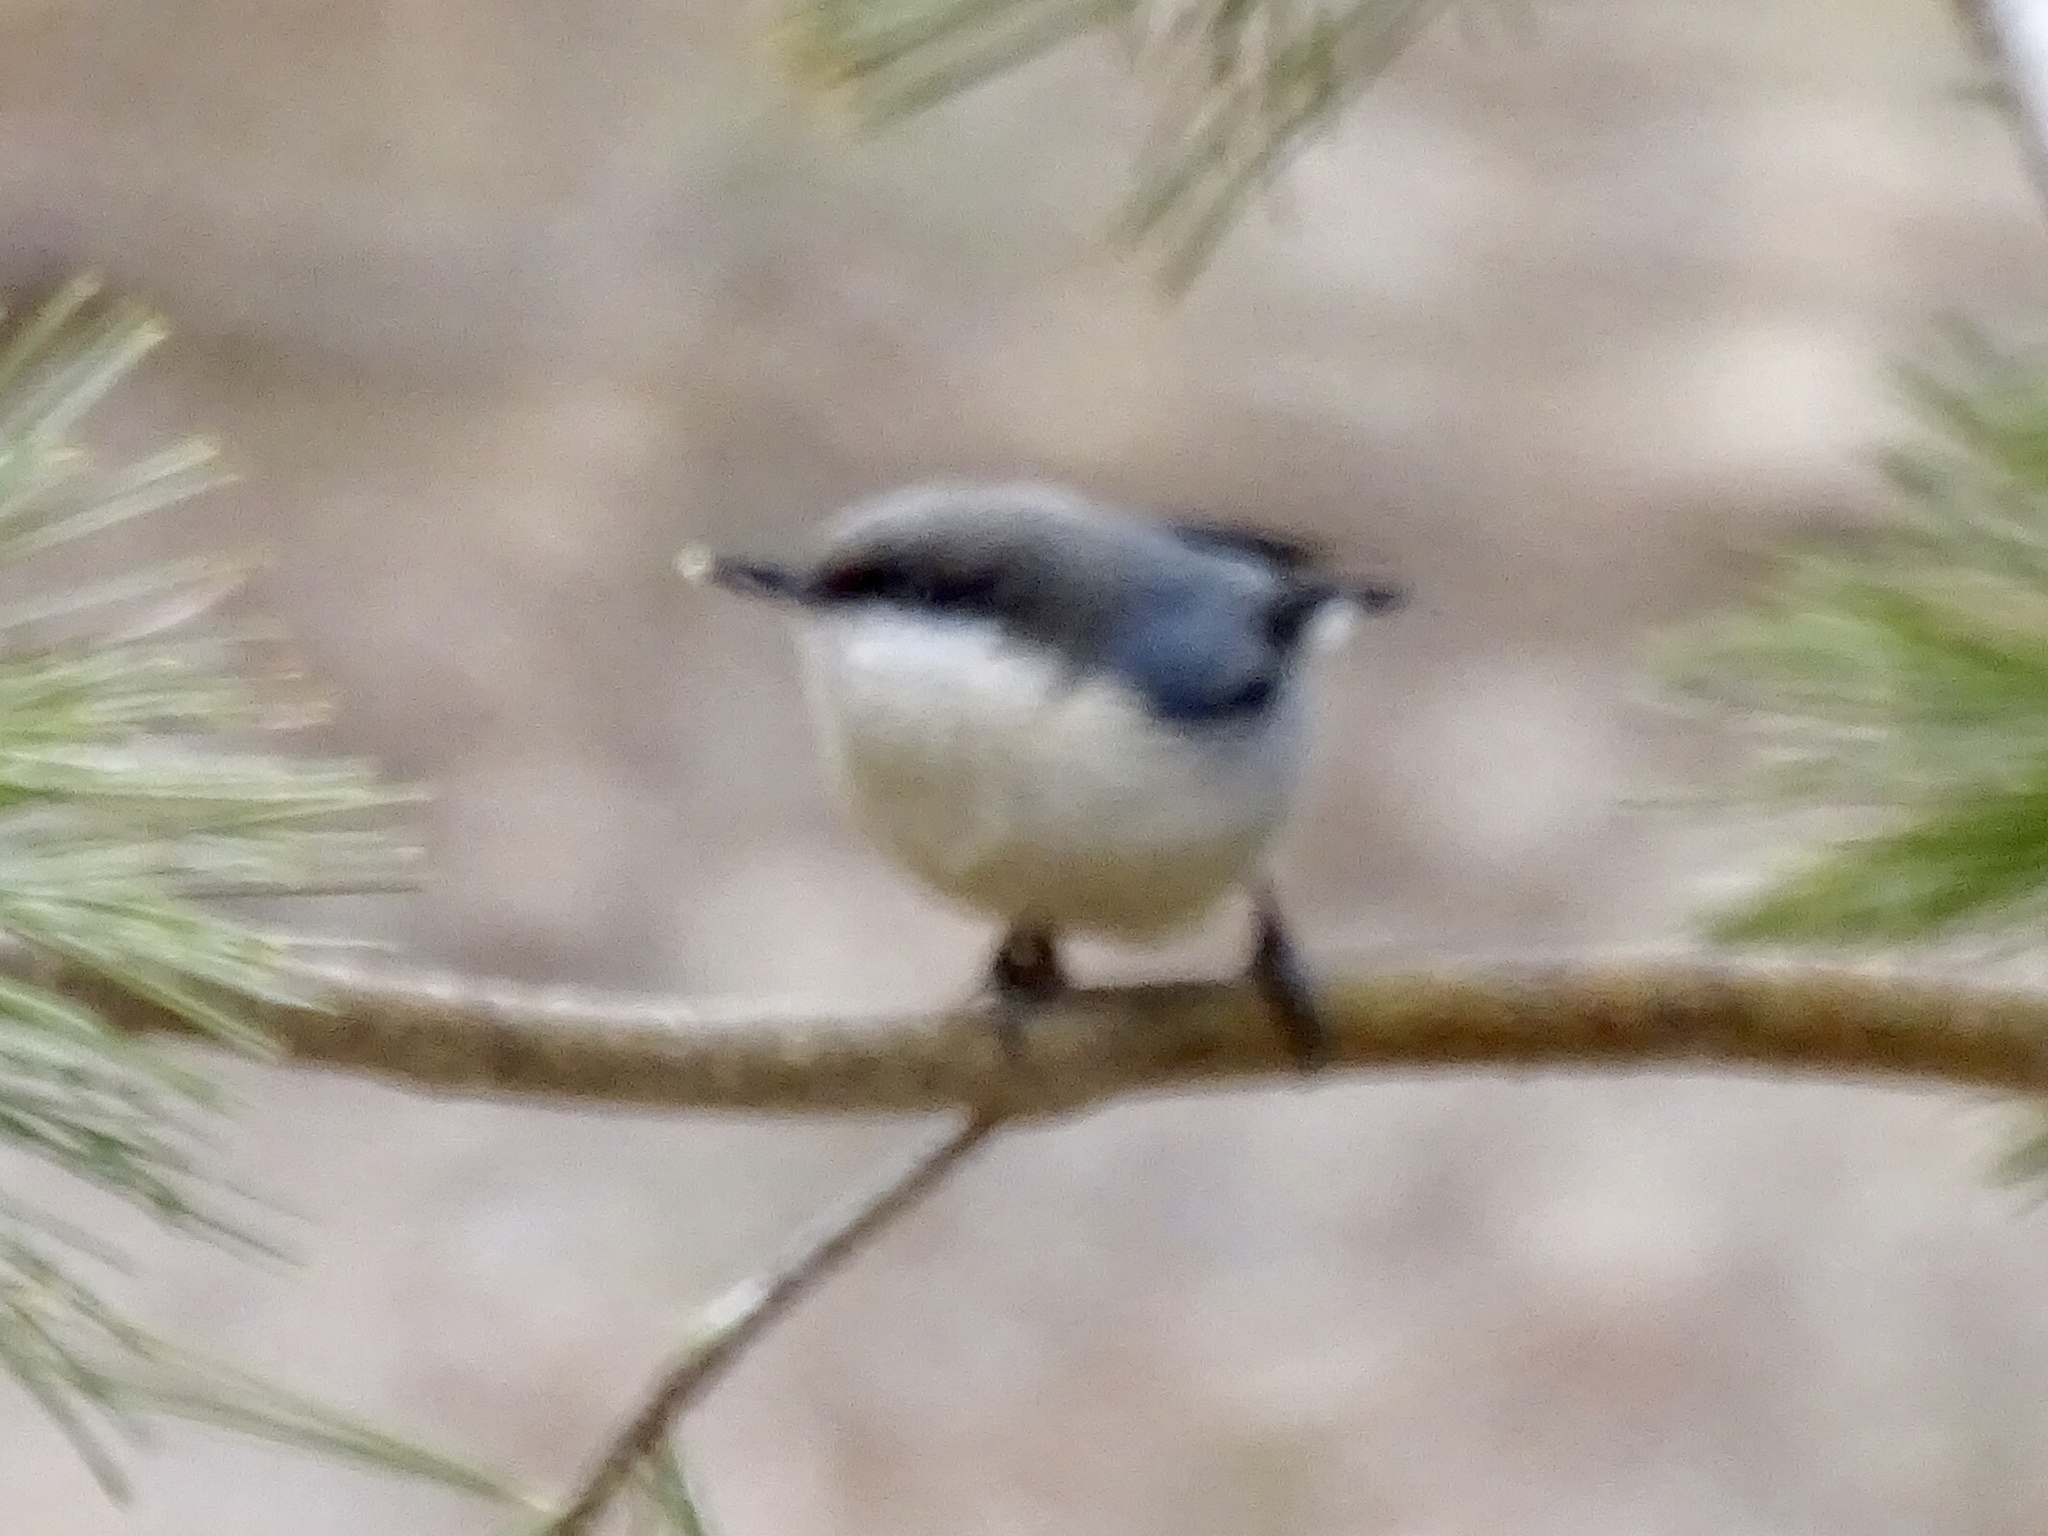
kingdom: Animalia
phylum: Chordata
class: Aves
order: Passeriformes
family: Sittidae
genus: Sitta
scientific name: Sitta pygmaea
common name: Pygmy nuthatch
